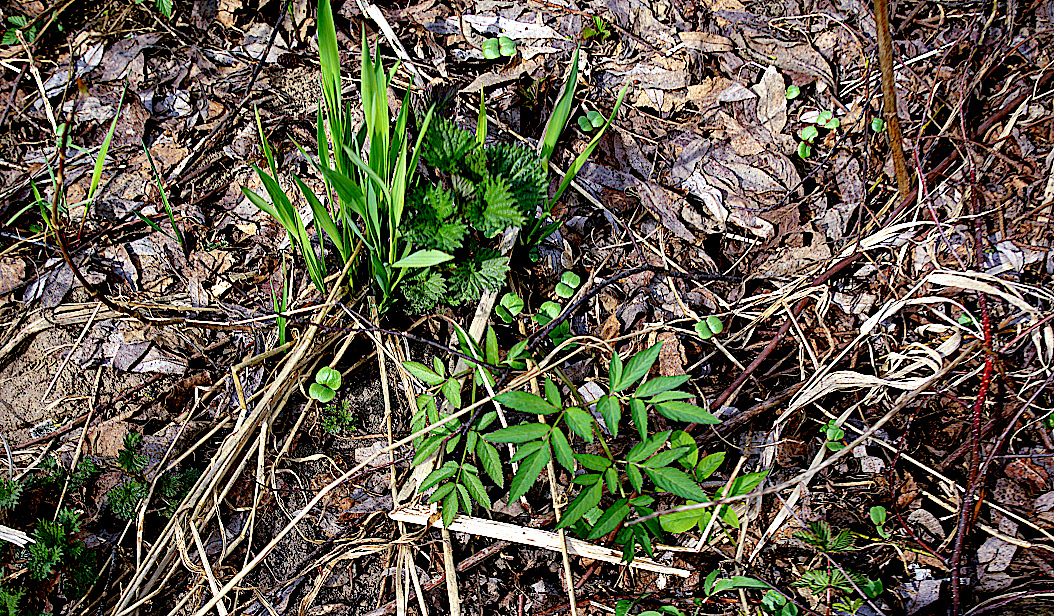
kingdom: Plantae
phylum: Tracheophyta
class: Magnoliopsida
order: Apiales
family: Apiaceae
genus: Angelica
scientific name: Angelica sylvestris
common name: Wild angelica
